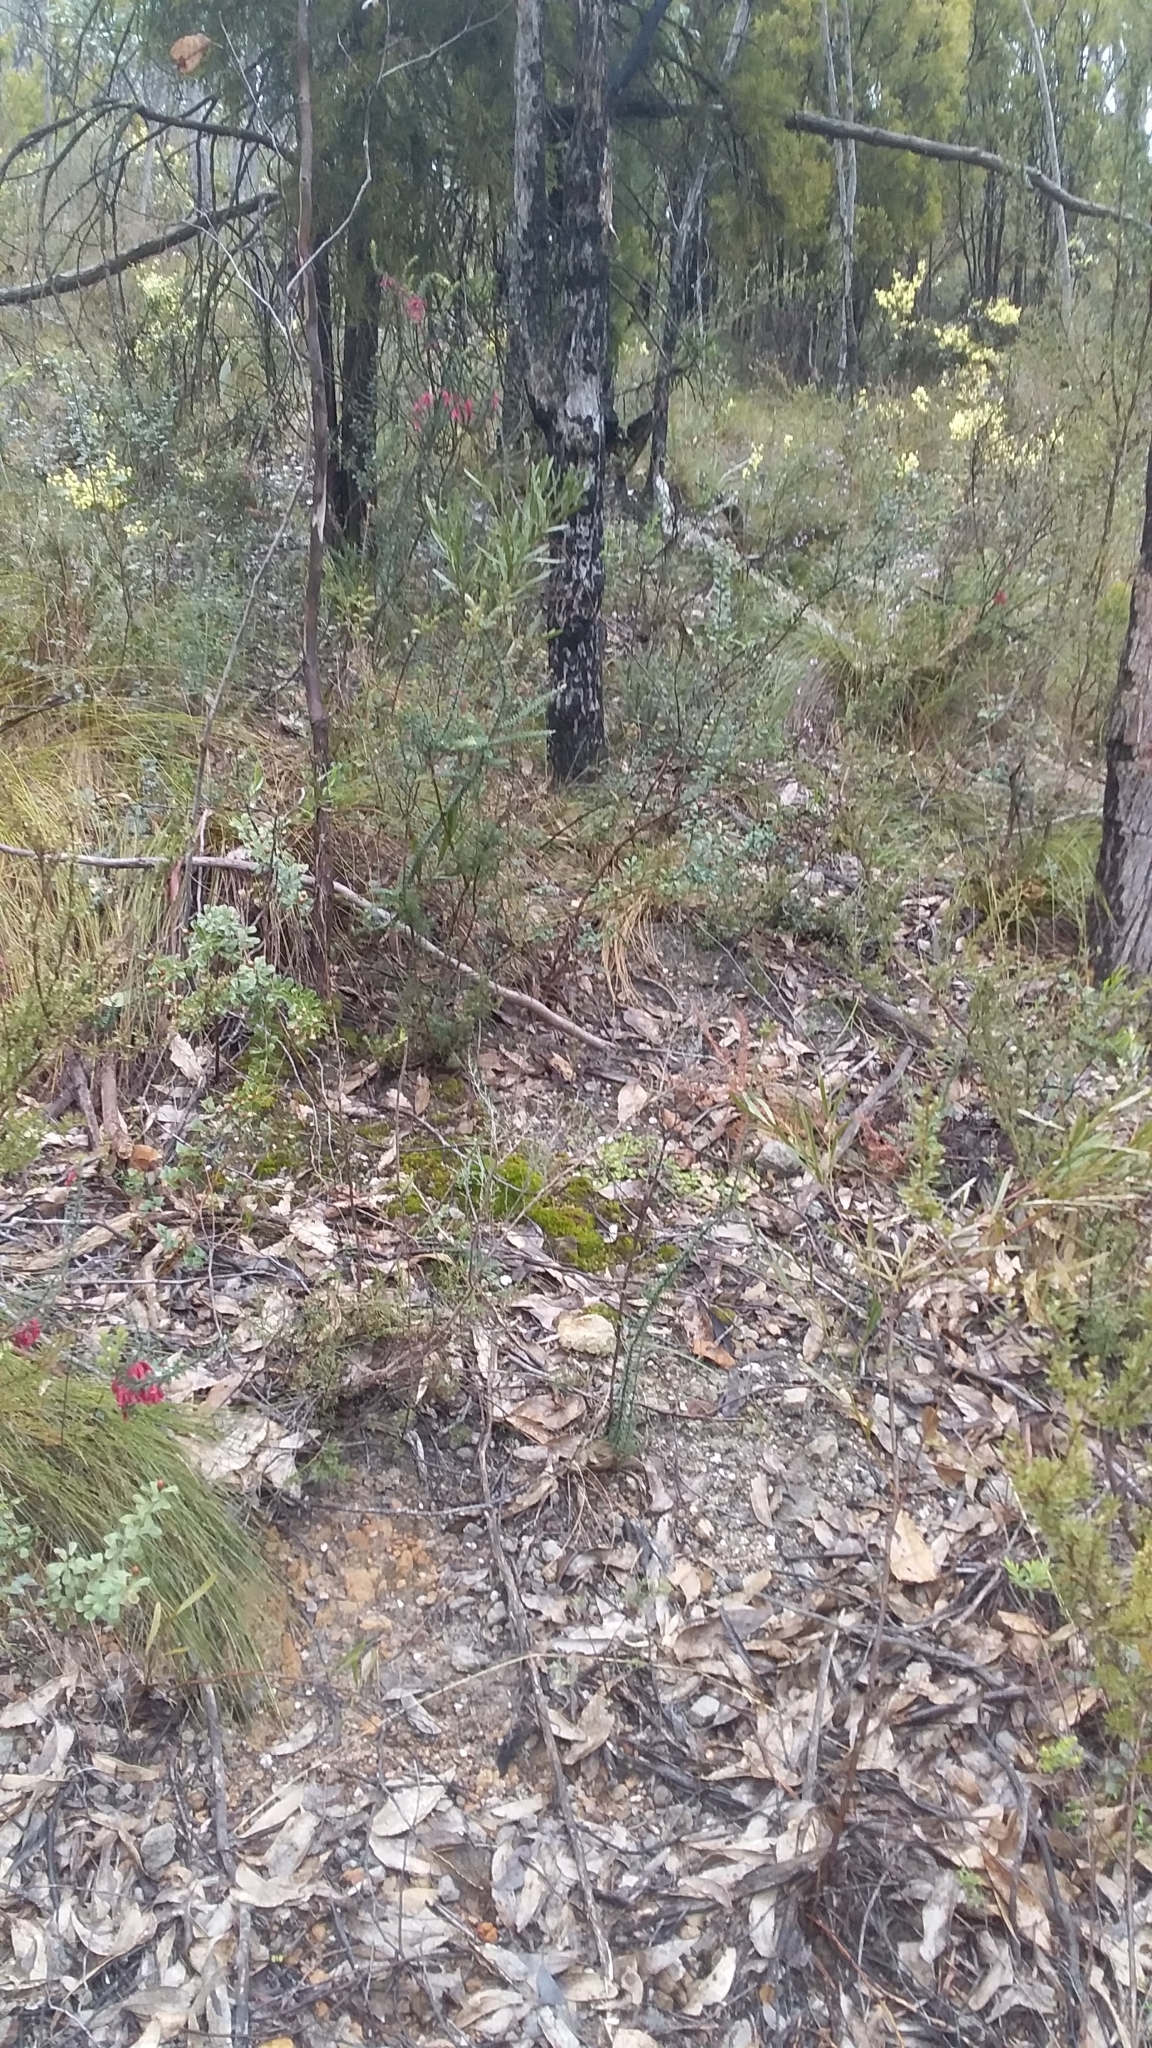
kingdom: Plantae
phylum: Tracheophyta
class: Liliopsida
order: Asparagales
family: Orchidaceae
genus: Pterostylis
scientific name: Pterostylis pedunculata
